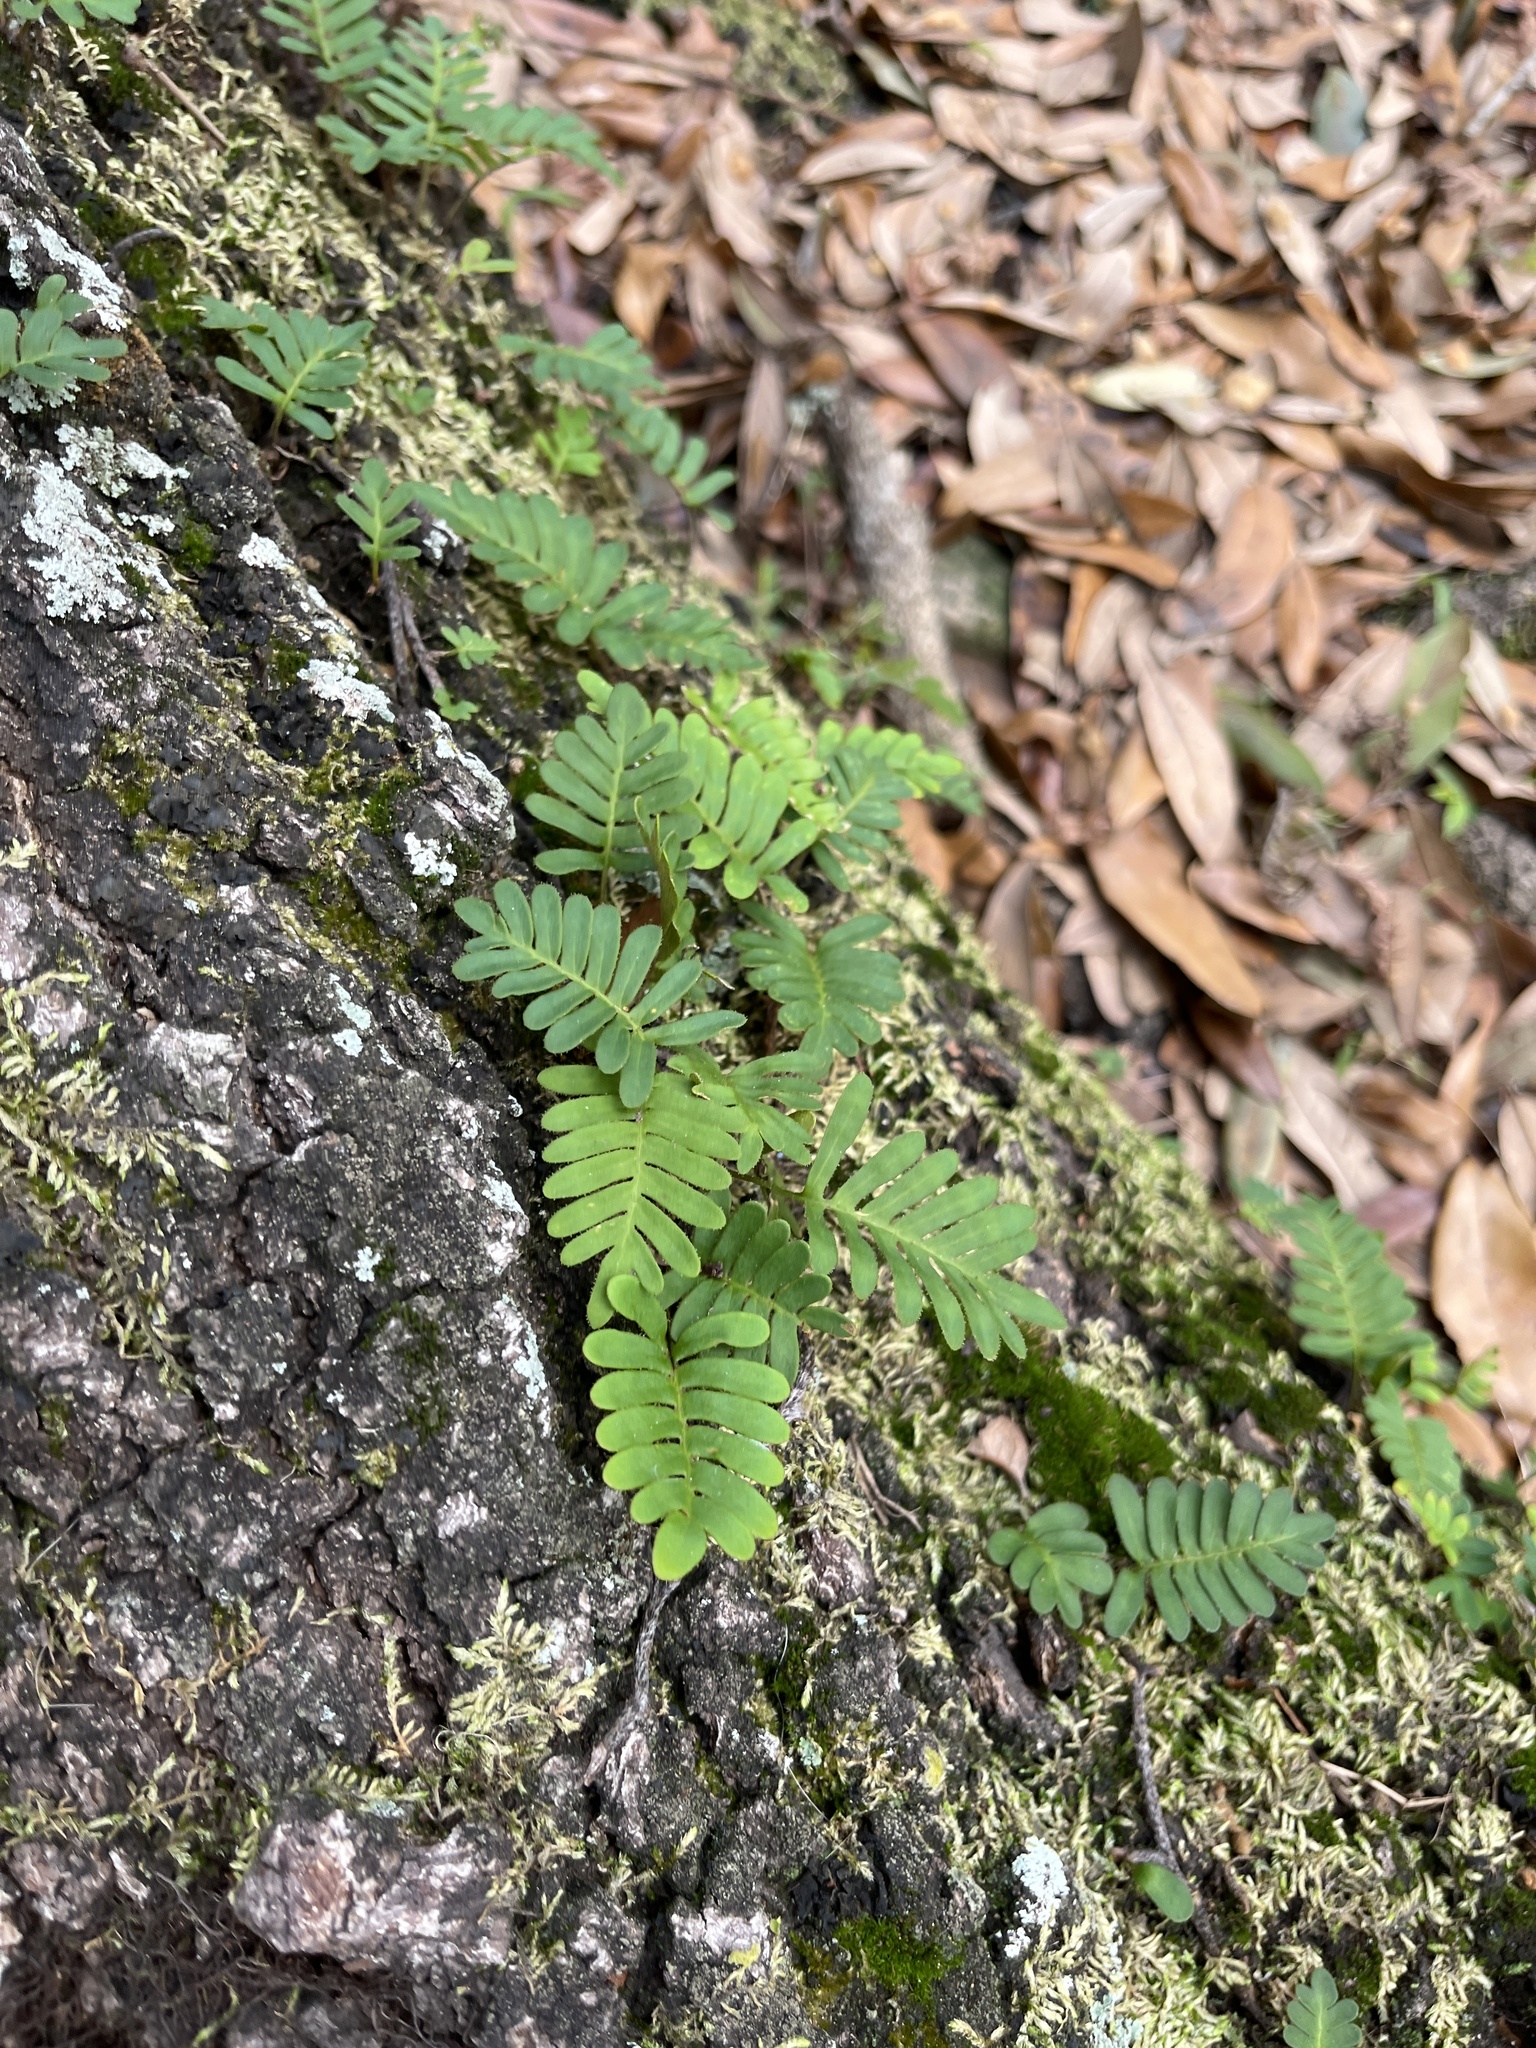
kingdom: Plantae
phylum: Tracheophyta
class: Polypodiopsida
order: Polypodiales
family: Polypodiaceae
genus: Pleopeltis
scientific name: Pleopeltis michauxiana
